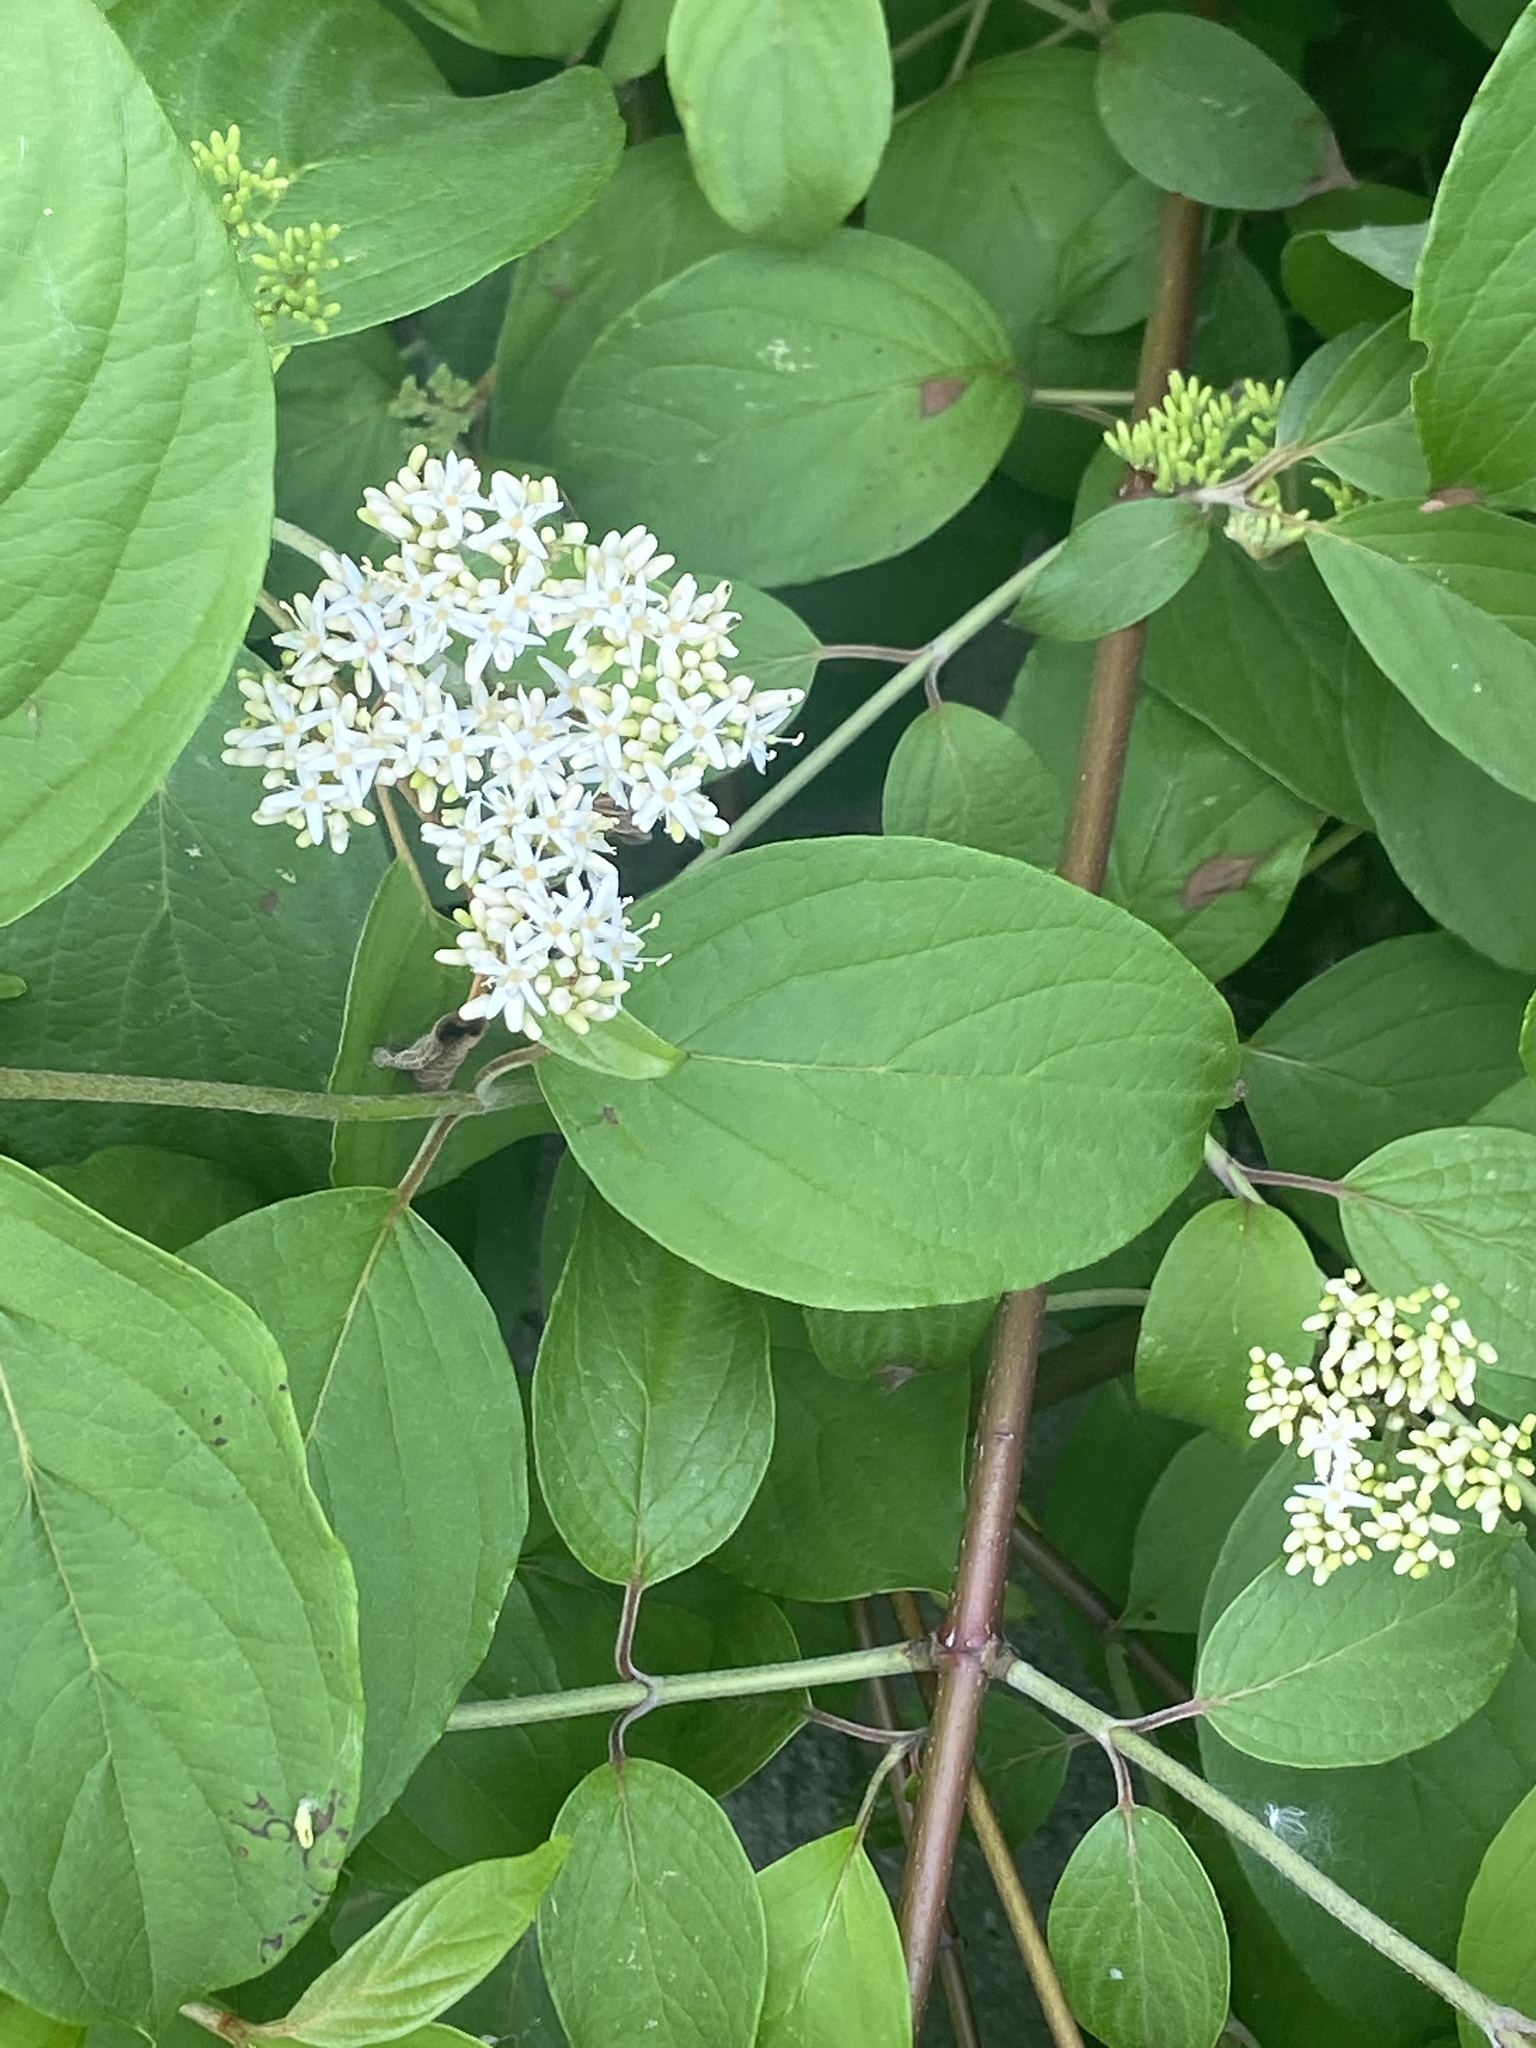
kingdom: Plantae
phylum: Tracheophyta
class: Magnoliopsida
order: Cornales
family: Cornaceae
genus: Cornus
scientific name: Cornus amomum
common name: Silky dogwood
